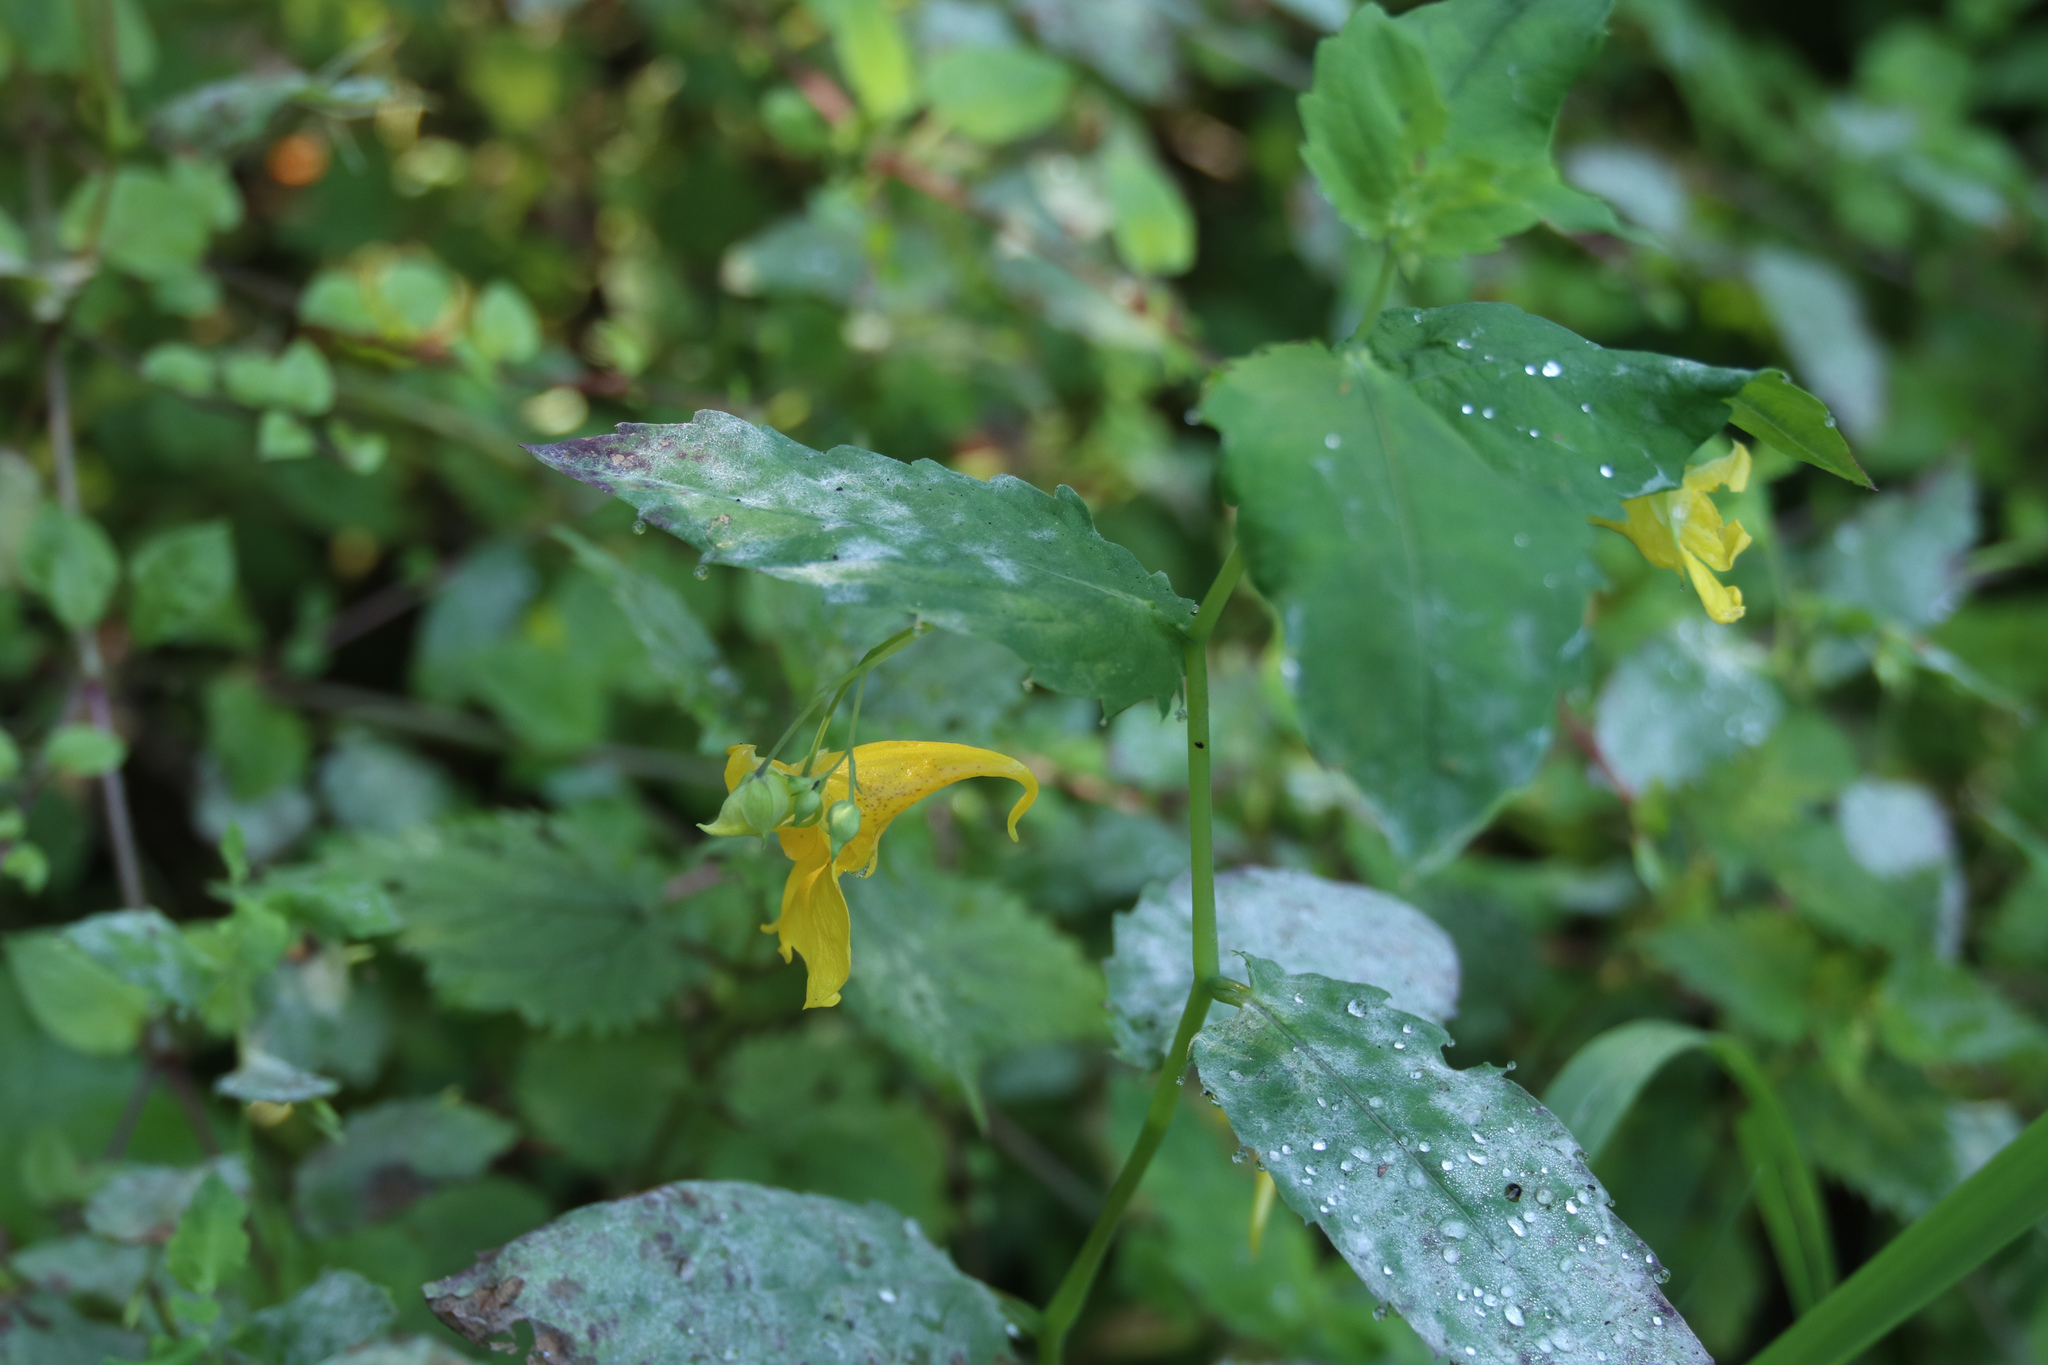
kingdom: Plantae
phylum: Tracheophyta
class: Magnoliopsida
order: Ericales
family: Balsaminaceae
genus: Impatiens
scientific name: Impatiens noli-tangere
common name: Touch-me-not balsam
